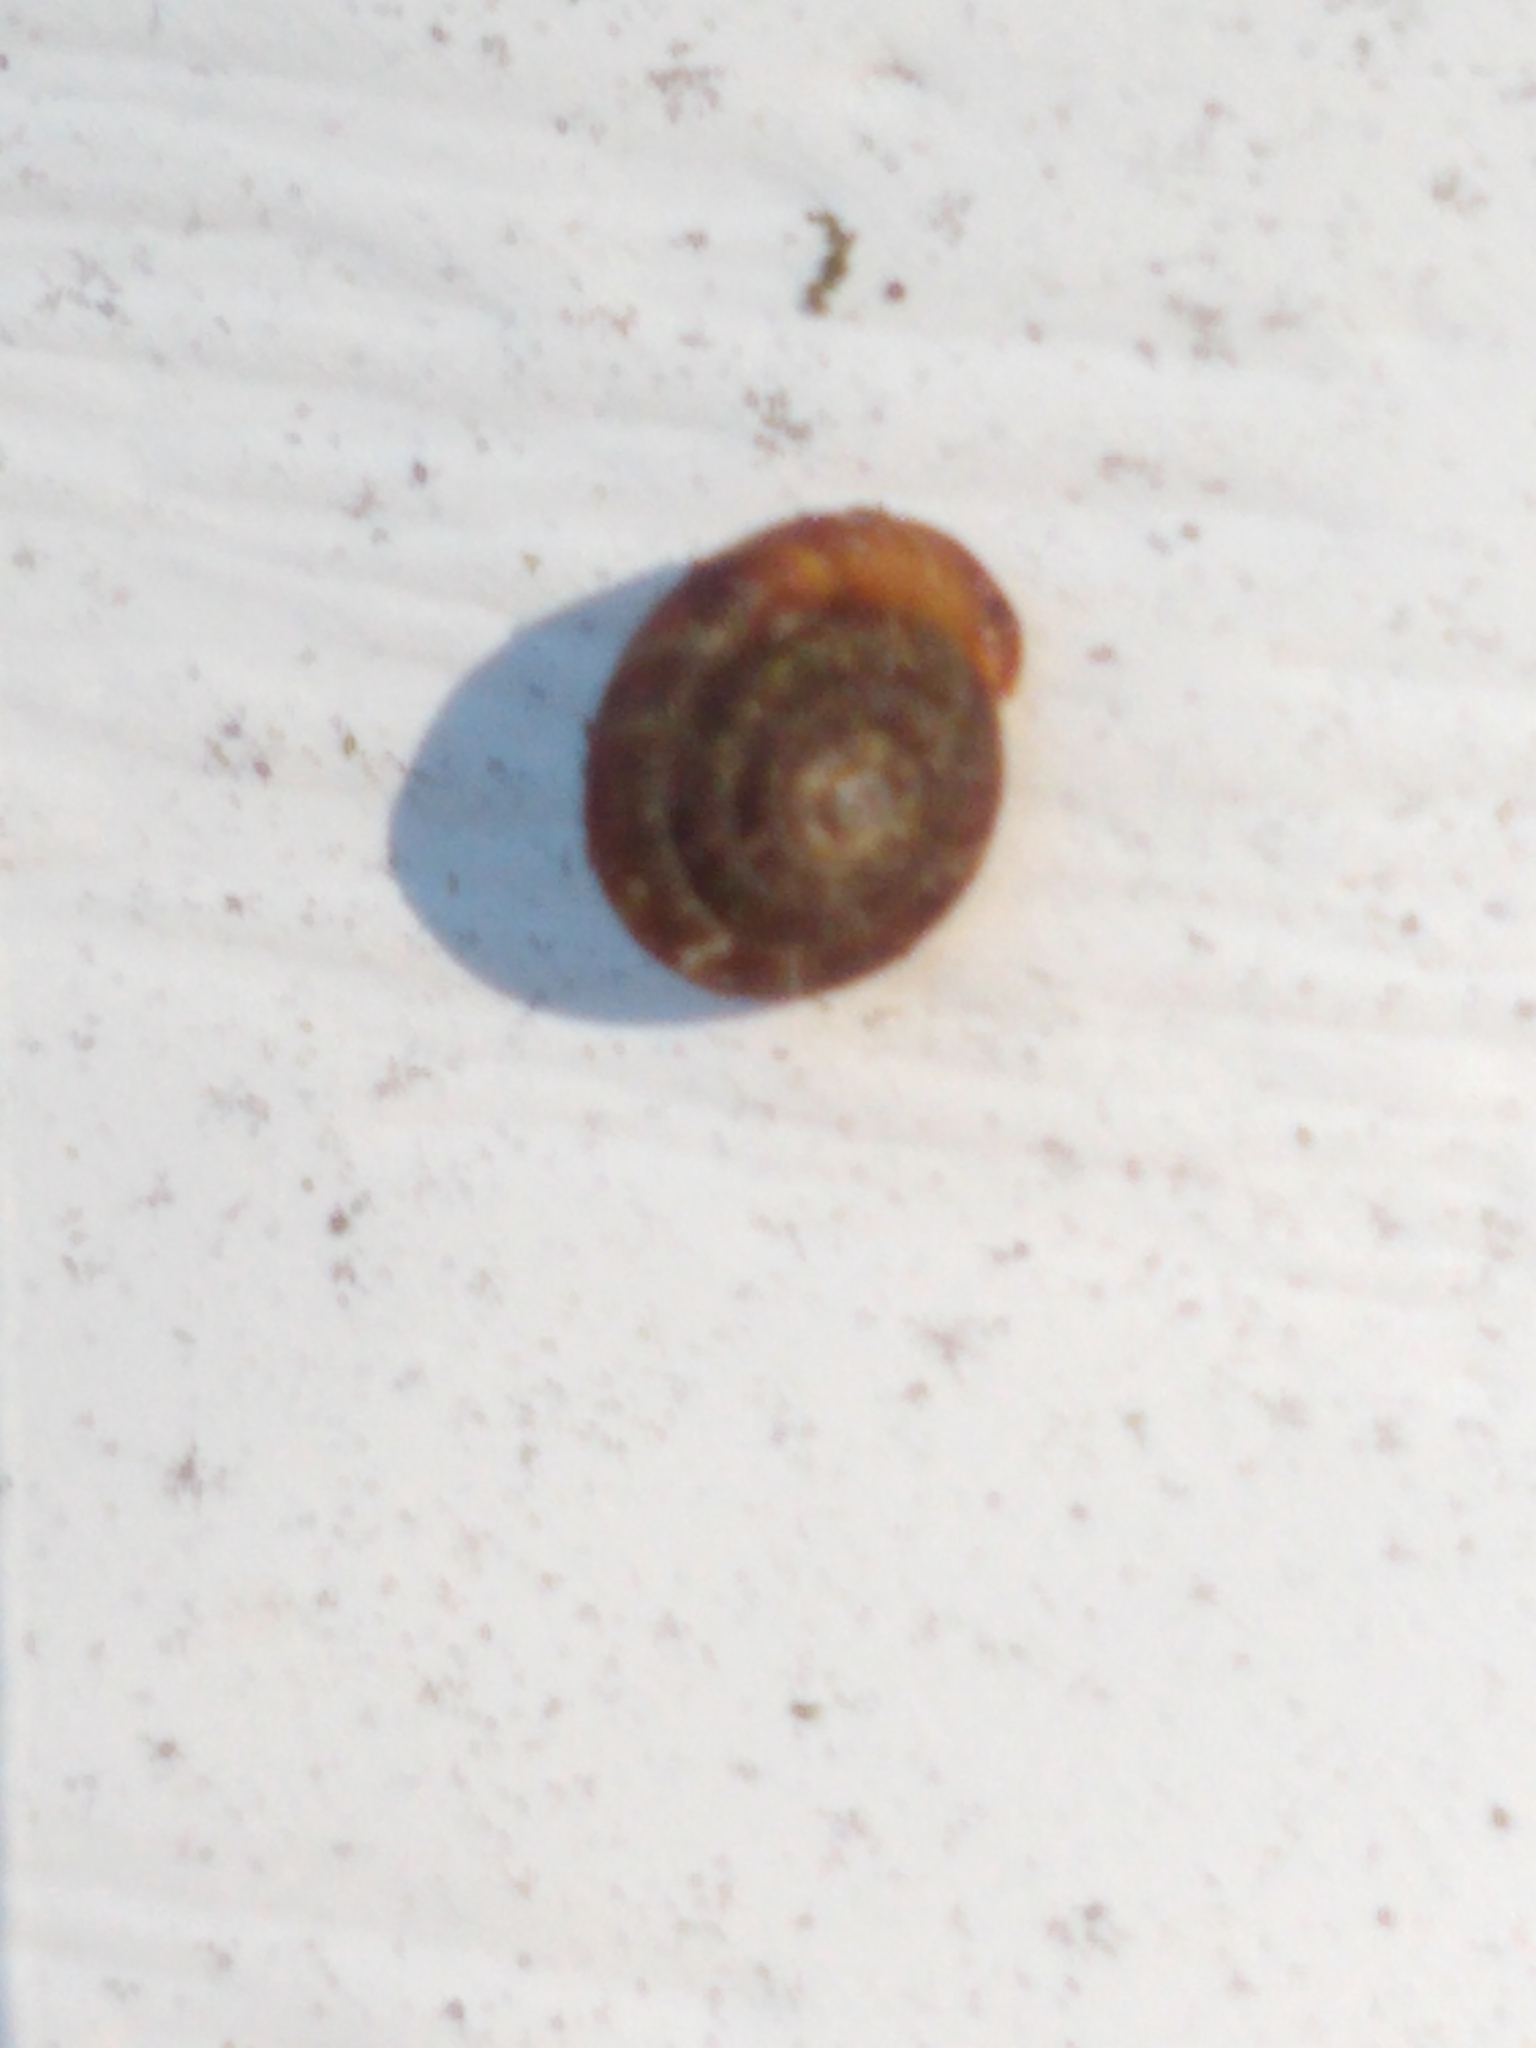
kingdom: Animalia
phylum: Mollusca
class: Gastropoda
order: Stylommatophora
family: Discidae
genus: Discus
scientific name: Discus rotundatus
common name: Rounded snail
